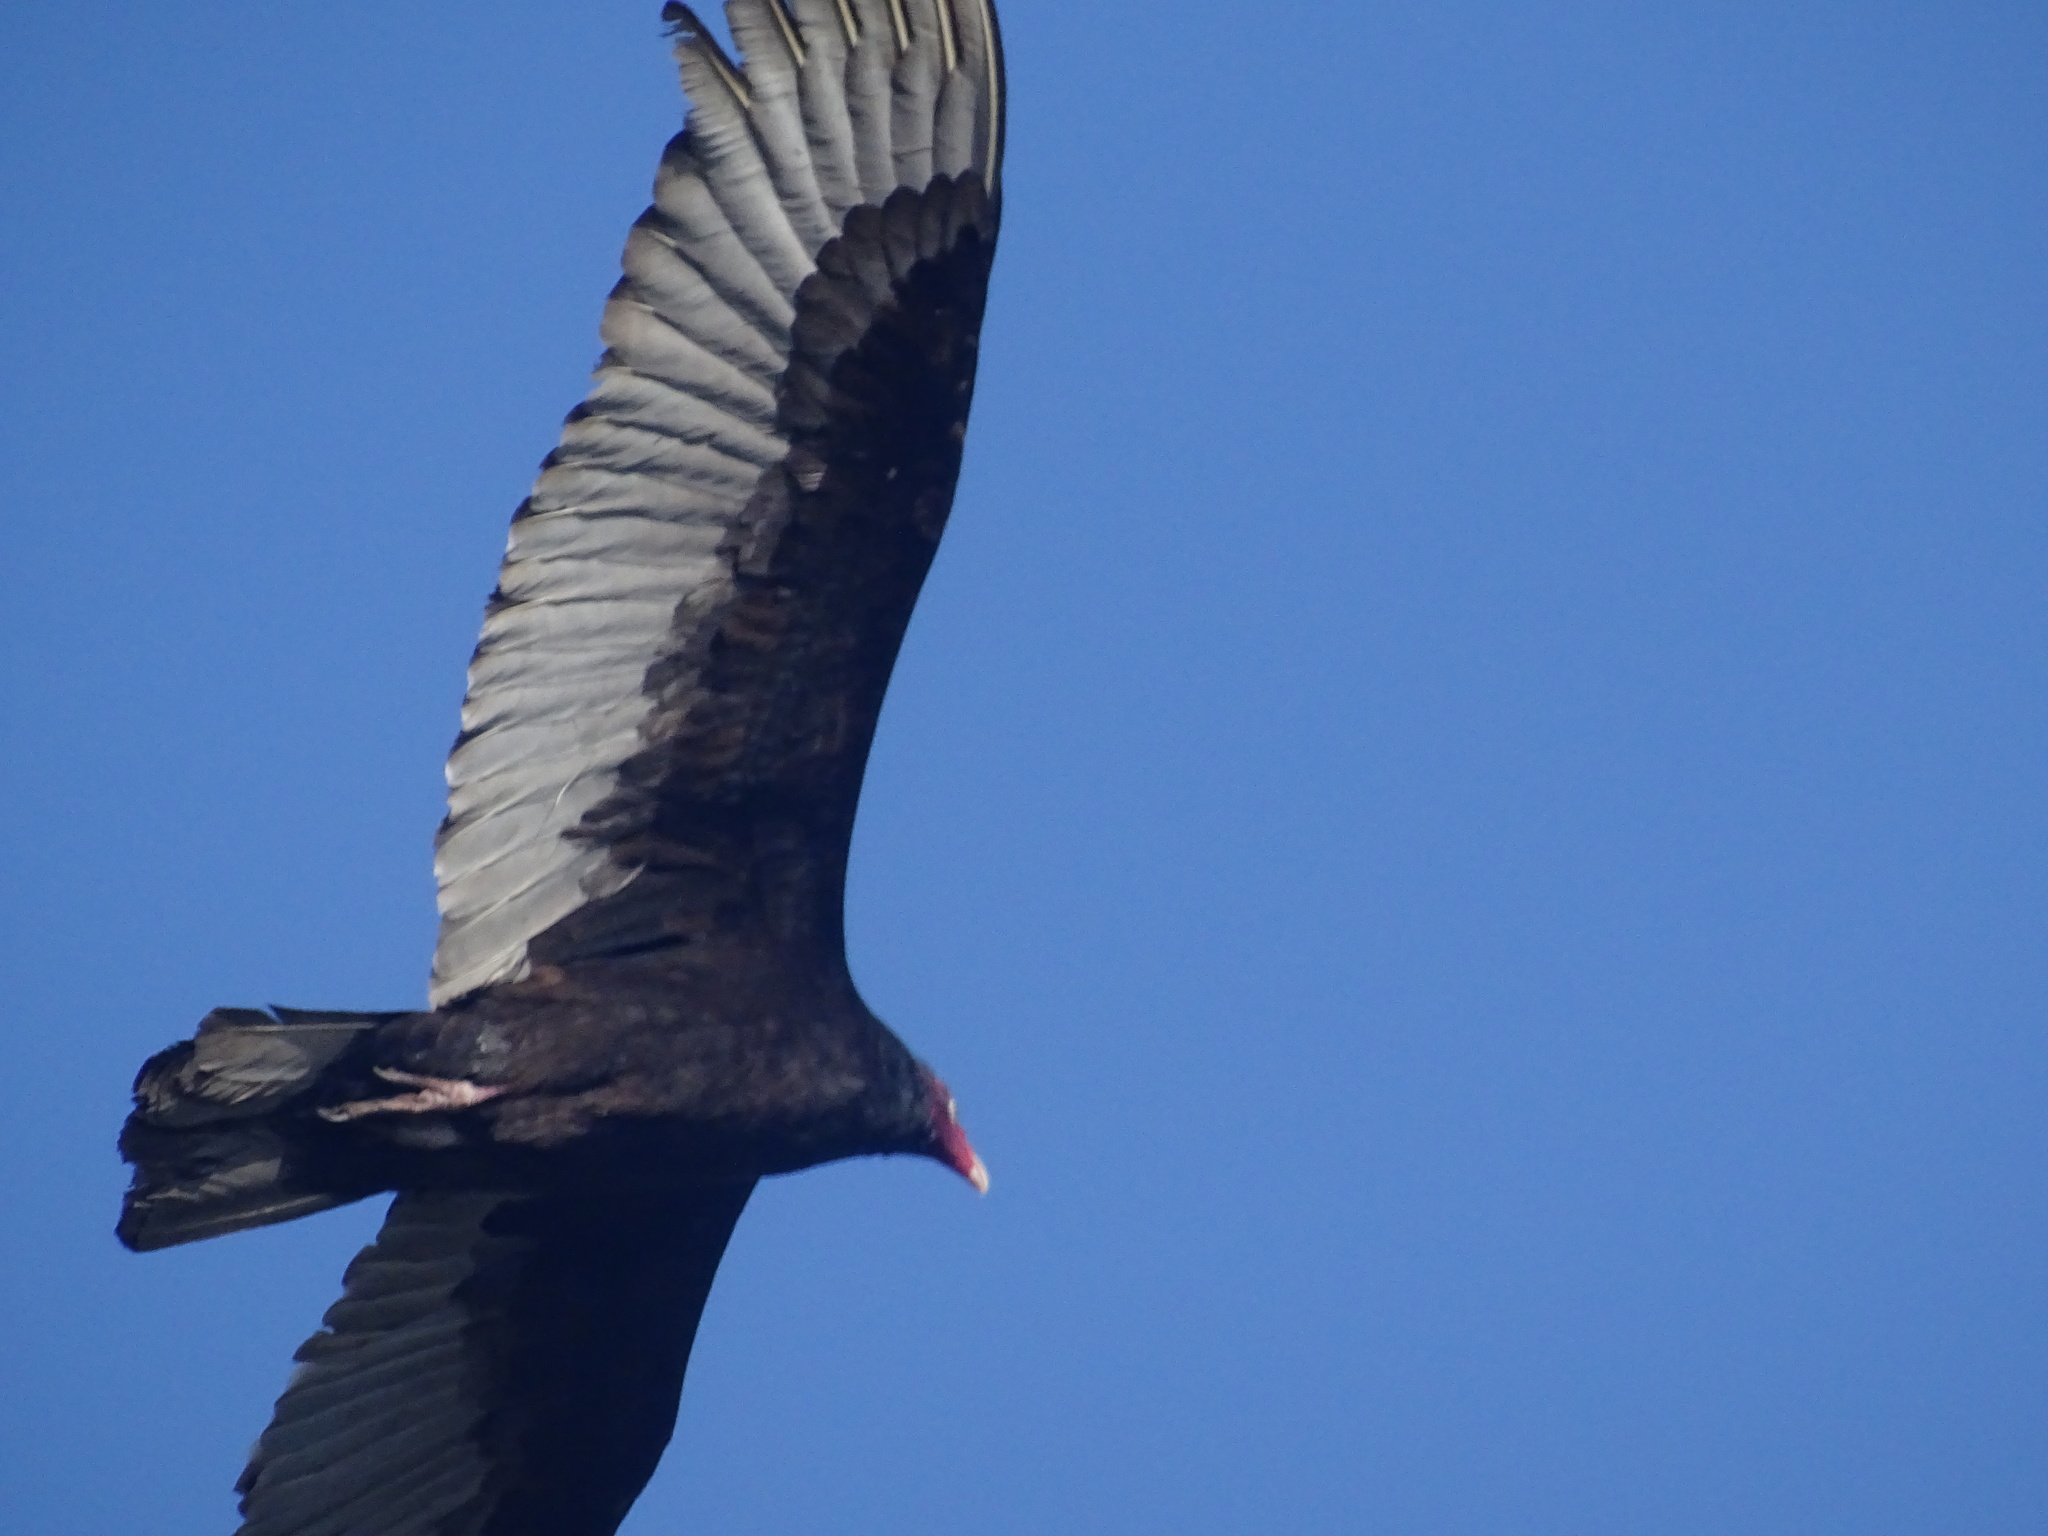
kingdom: Animalia
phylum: Chordata
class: Aves
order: Accipitriformes
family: Cathartidae
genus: Cathartes
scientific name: Cathartes aura
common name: Turkey vulture
